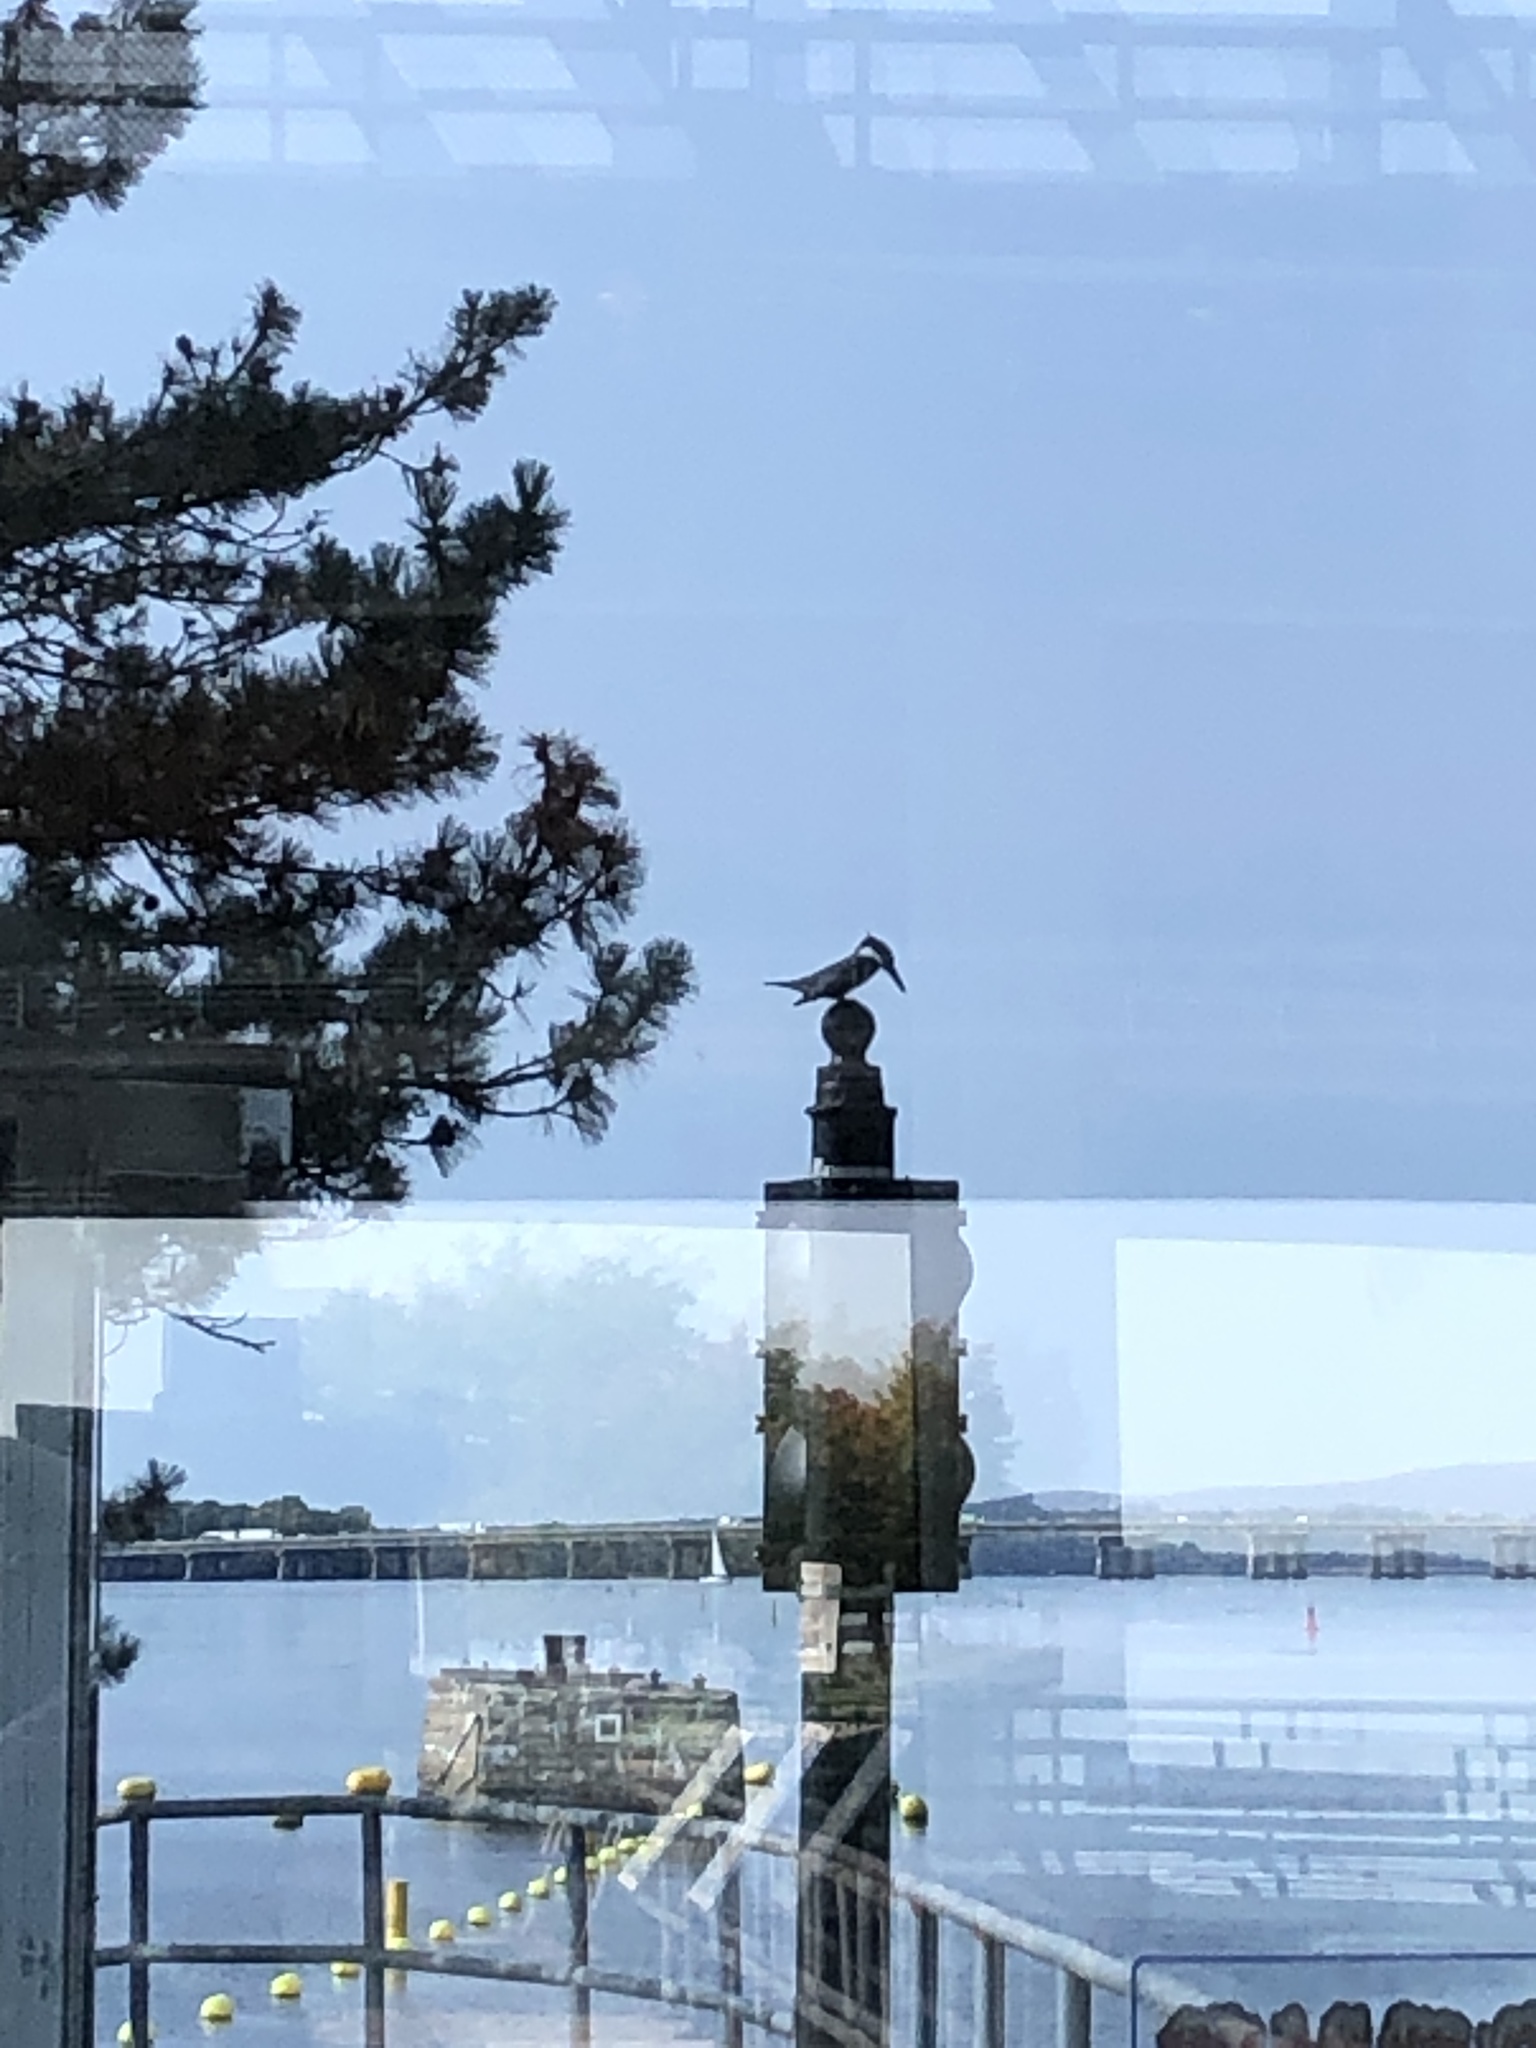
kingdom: Animalia
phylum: Chordata
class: Aves
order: Coraciiformes
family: Alcedinidae
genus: Megaceryle
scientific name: Megaceryle alcyon
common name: Belted kingfisher
